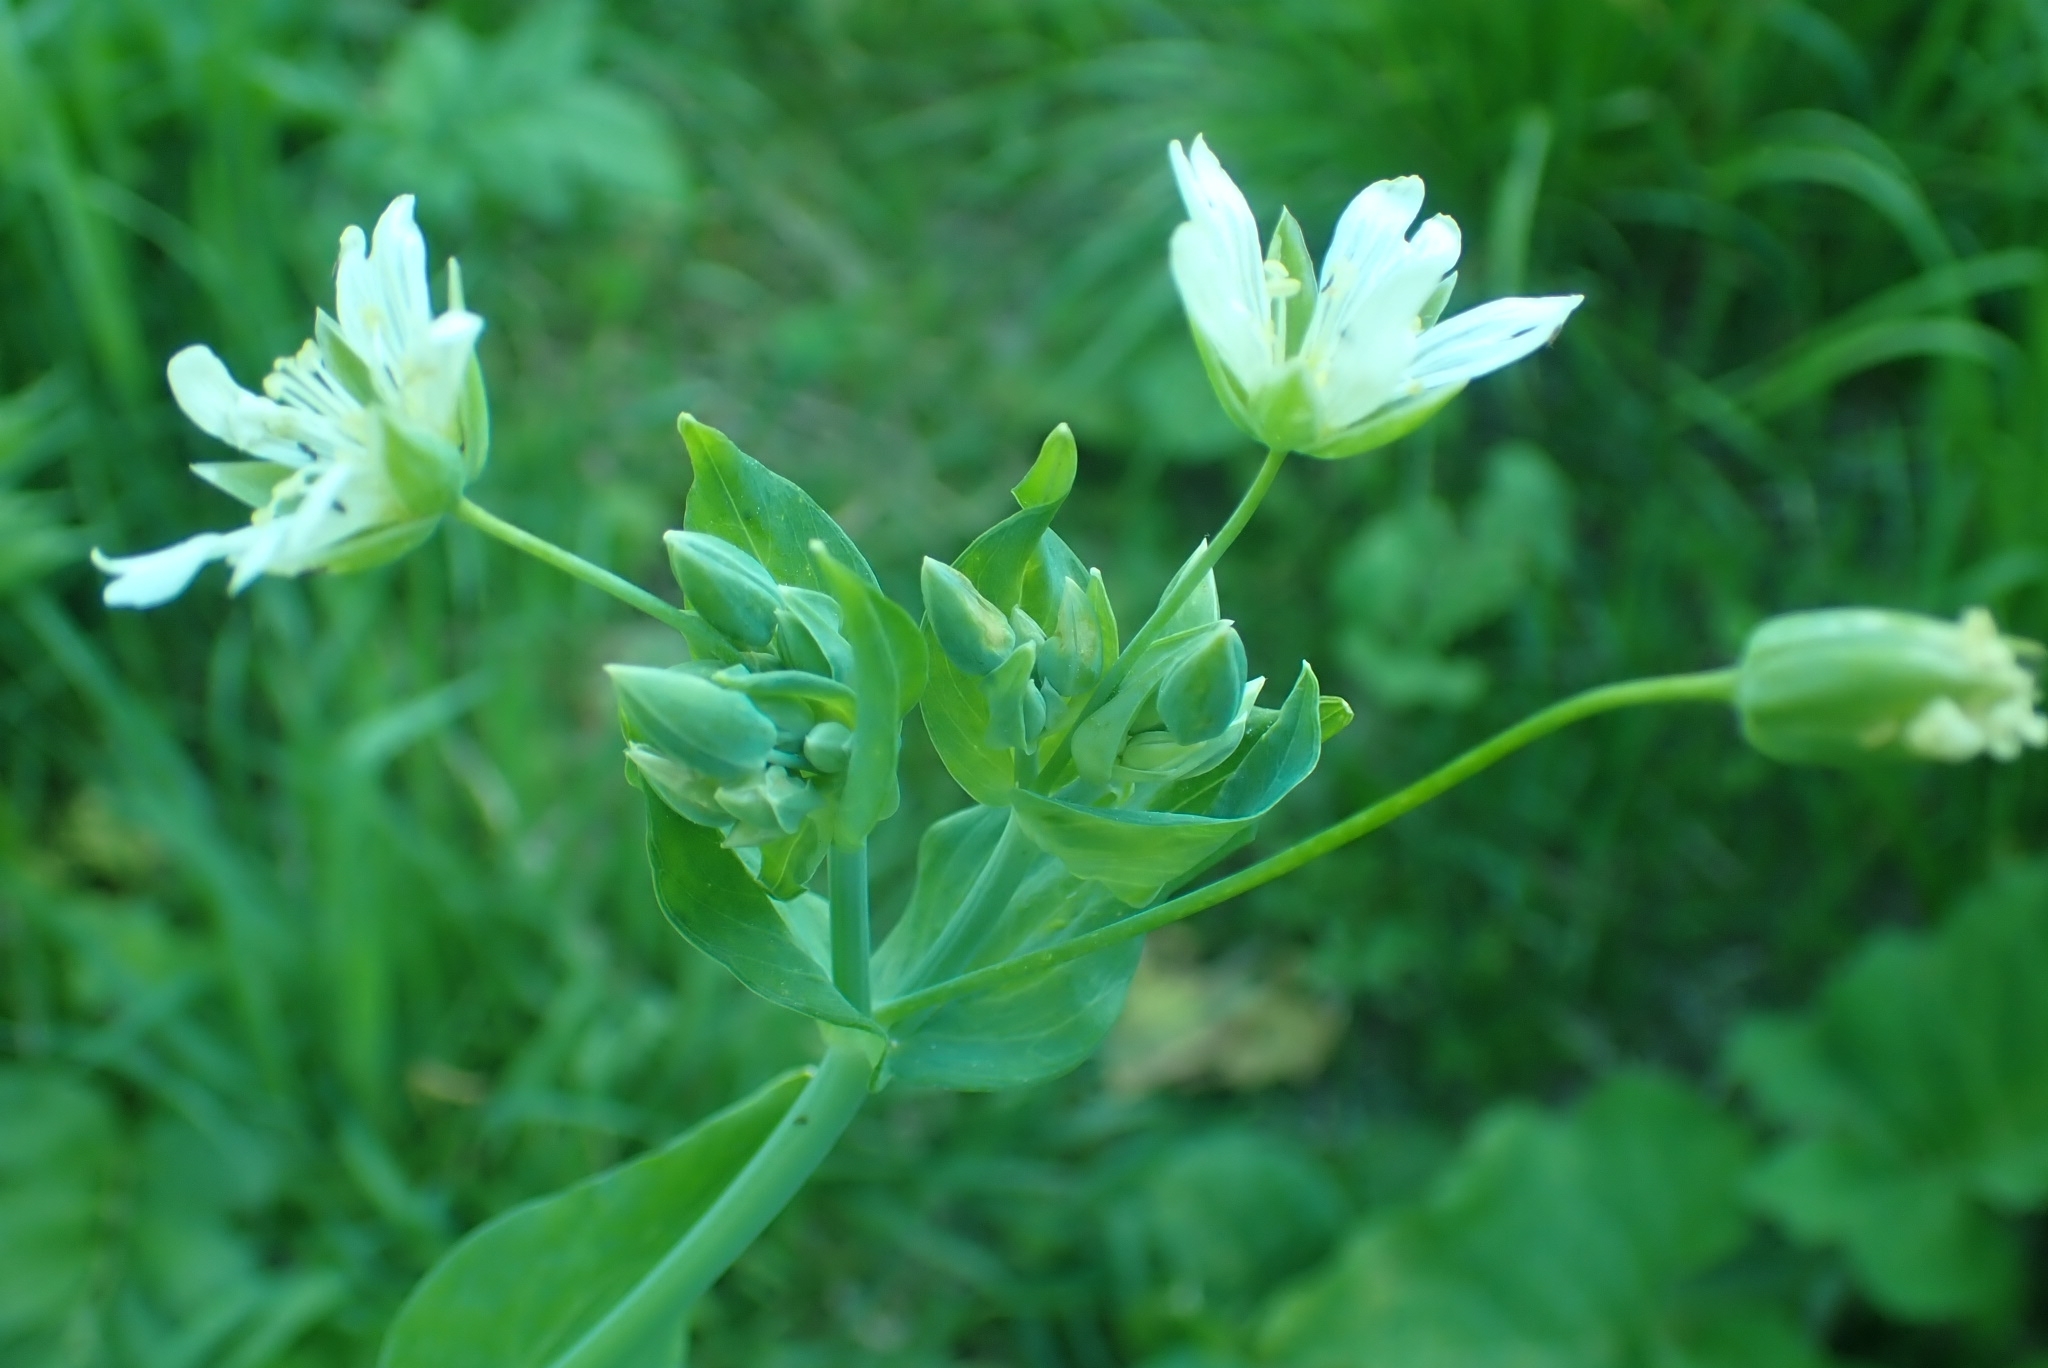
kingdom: Plantae
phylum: Tracheophyta
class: Magnoliopsida
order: Caryophyllales
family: Caryophyllaceae
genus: Cerastium
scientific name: Cerastium davuricum
